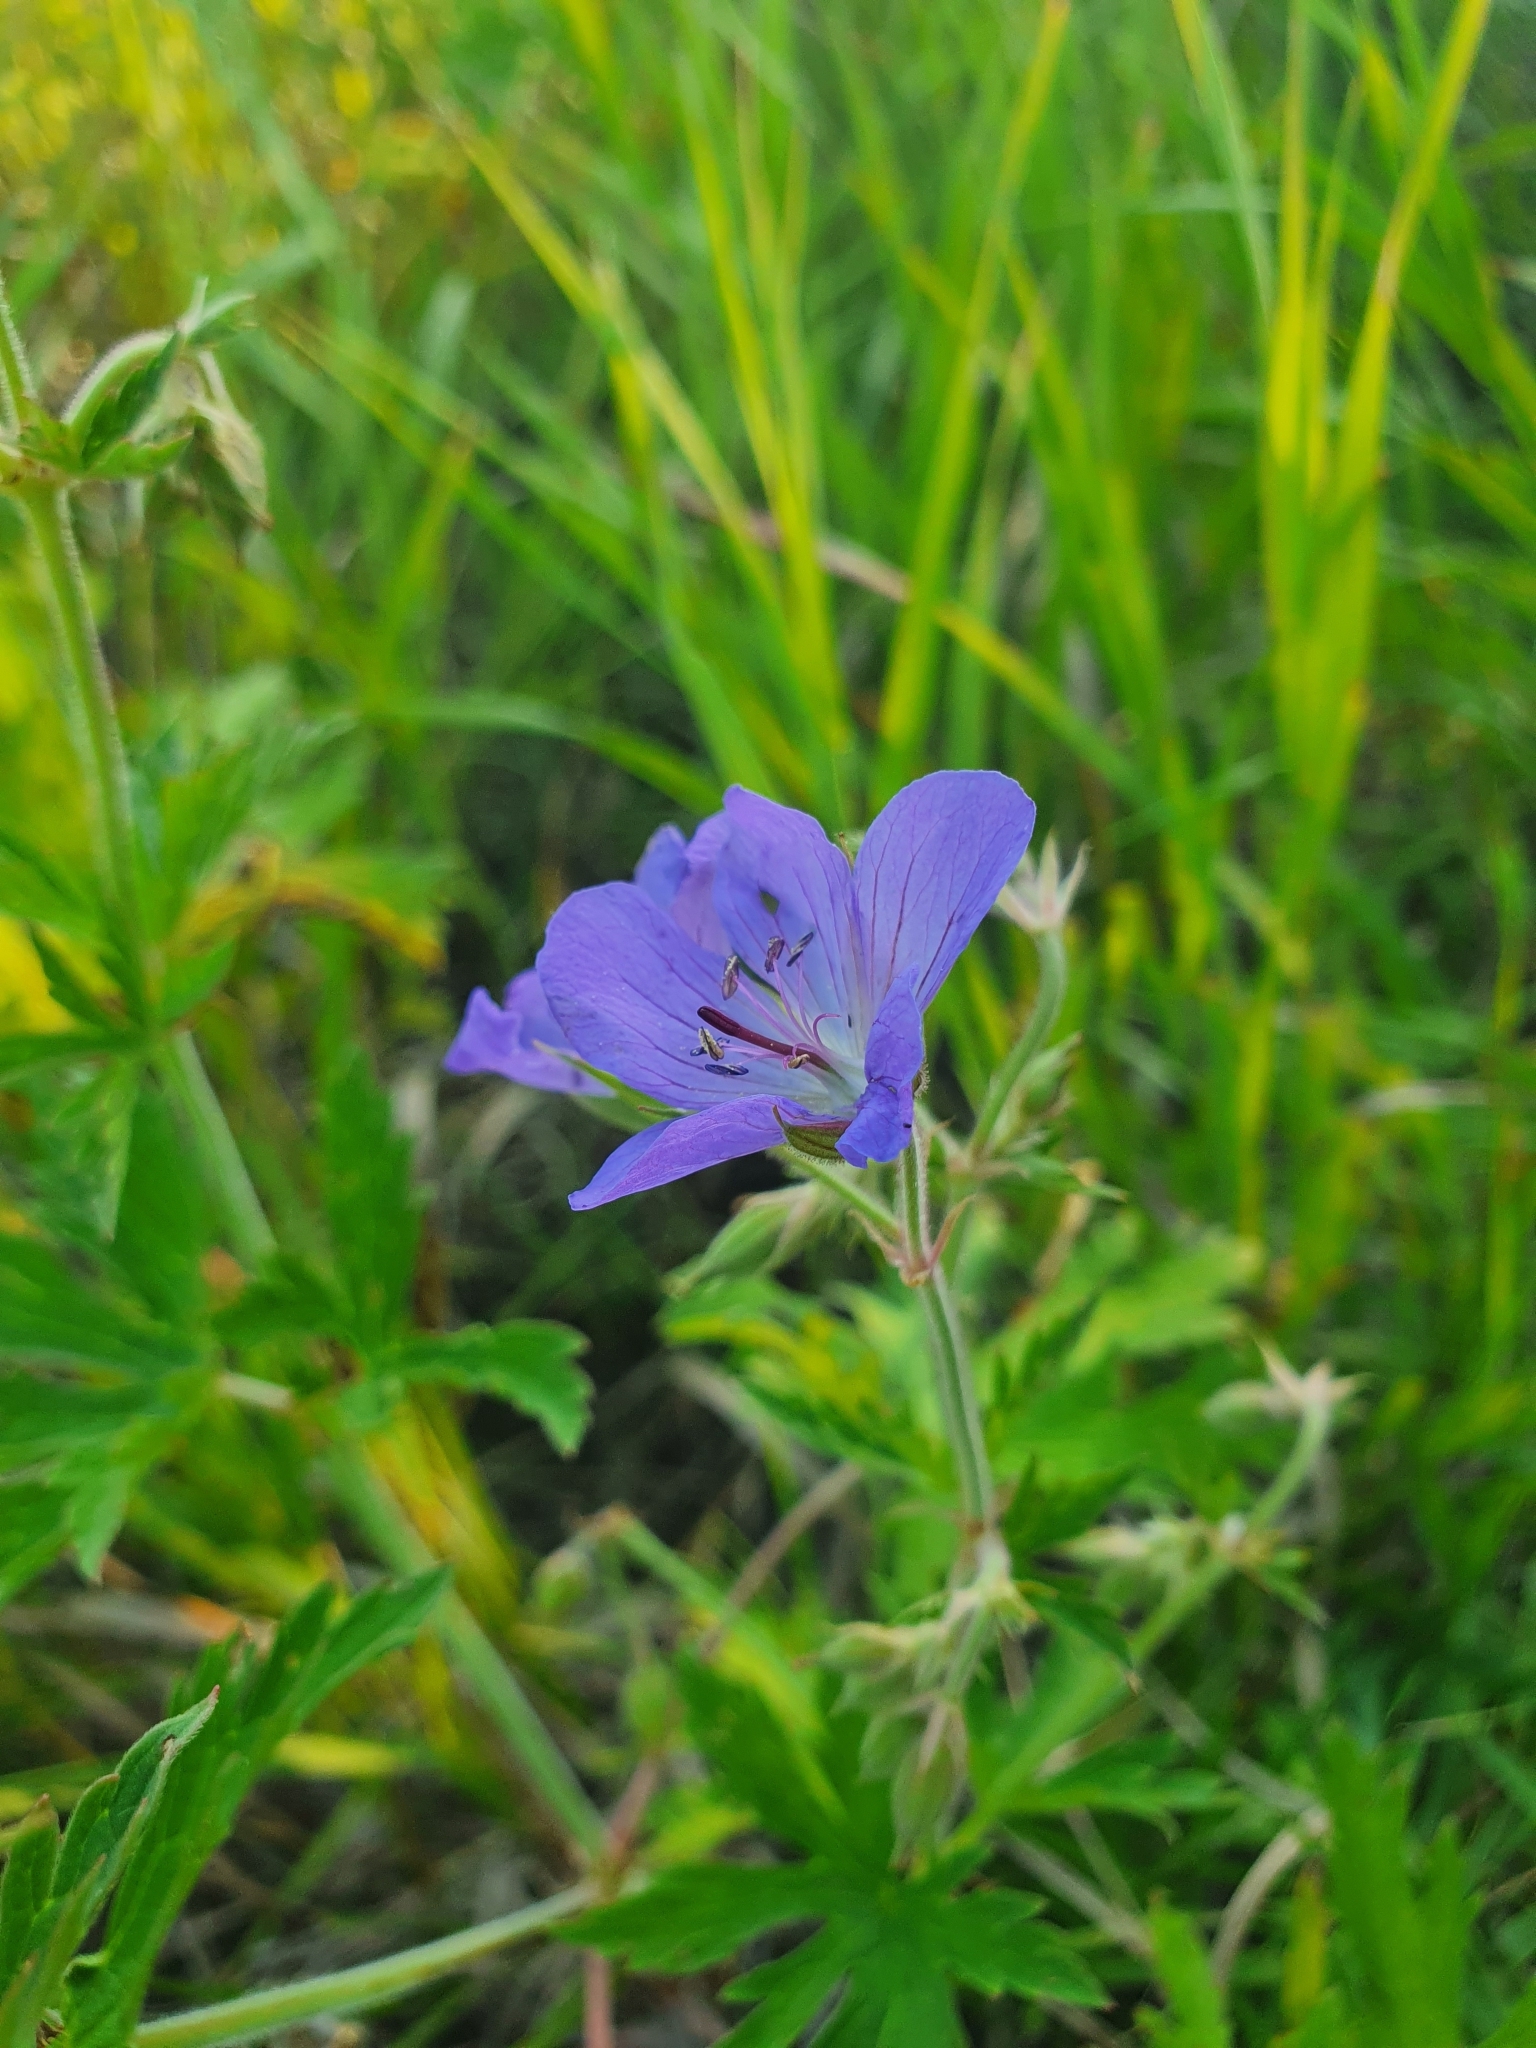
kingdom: Plantae
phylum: Tracheophyta
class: Magnoliopsida
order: Geraniales
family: Geraniaceae
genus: Geranium
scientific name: Geranium pratense
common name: Meadow crane's-bill
